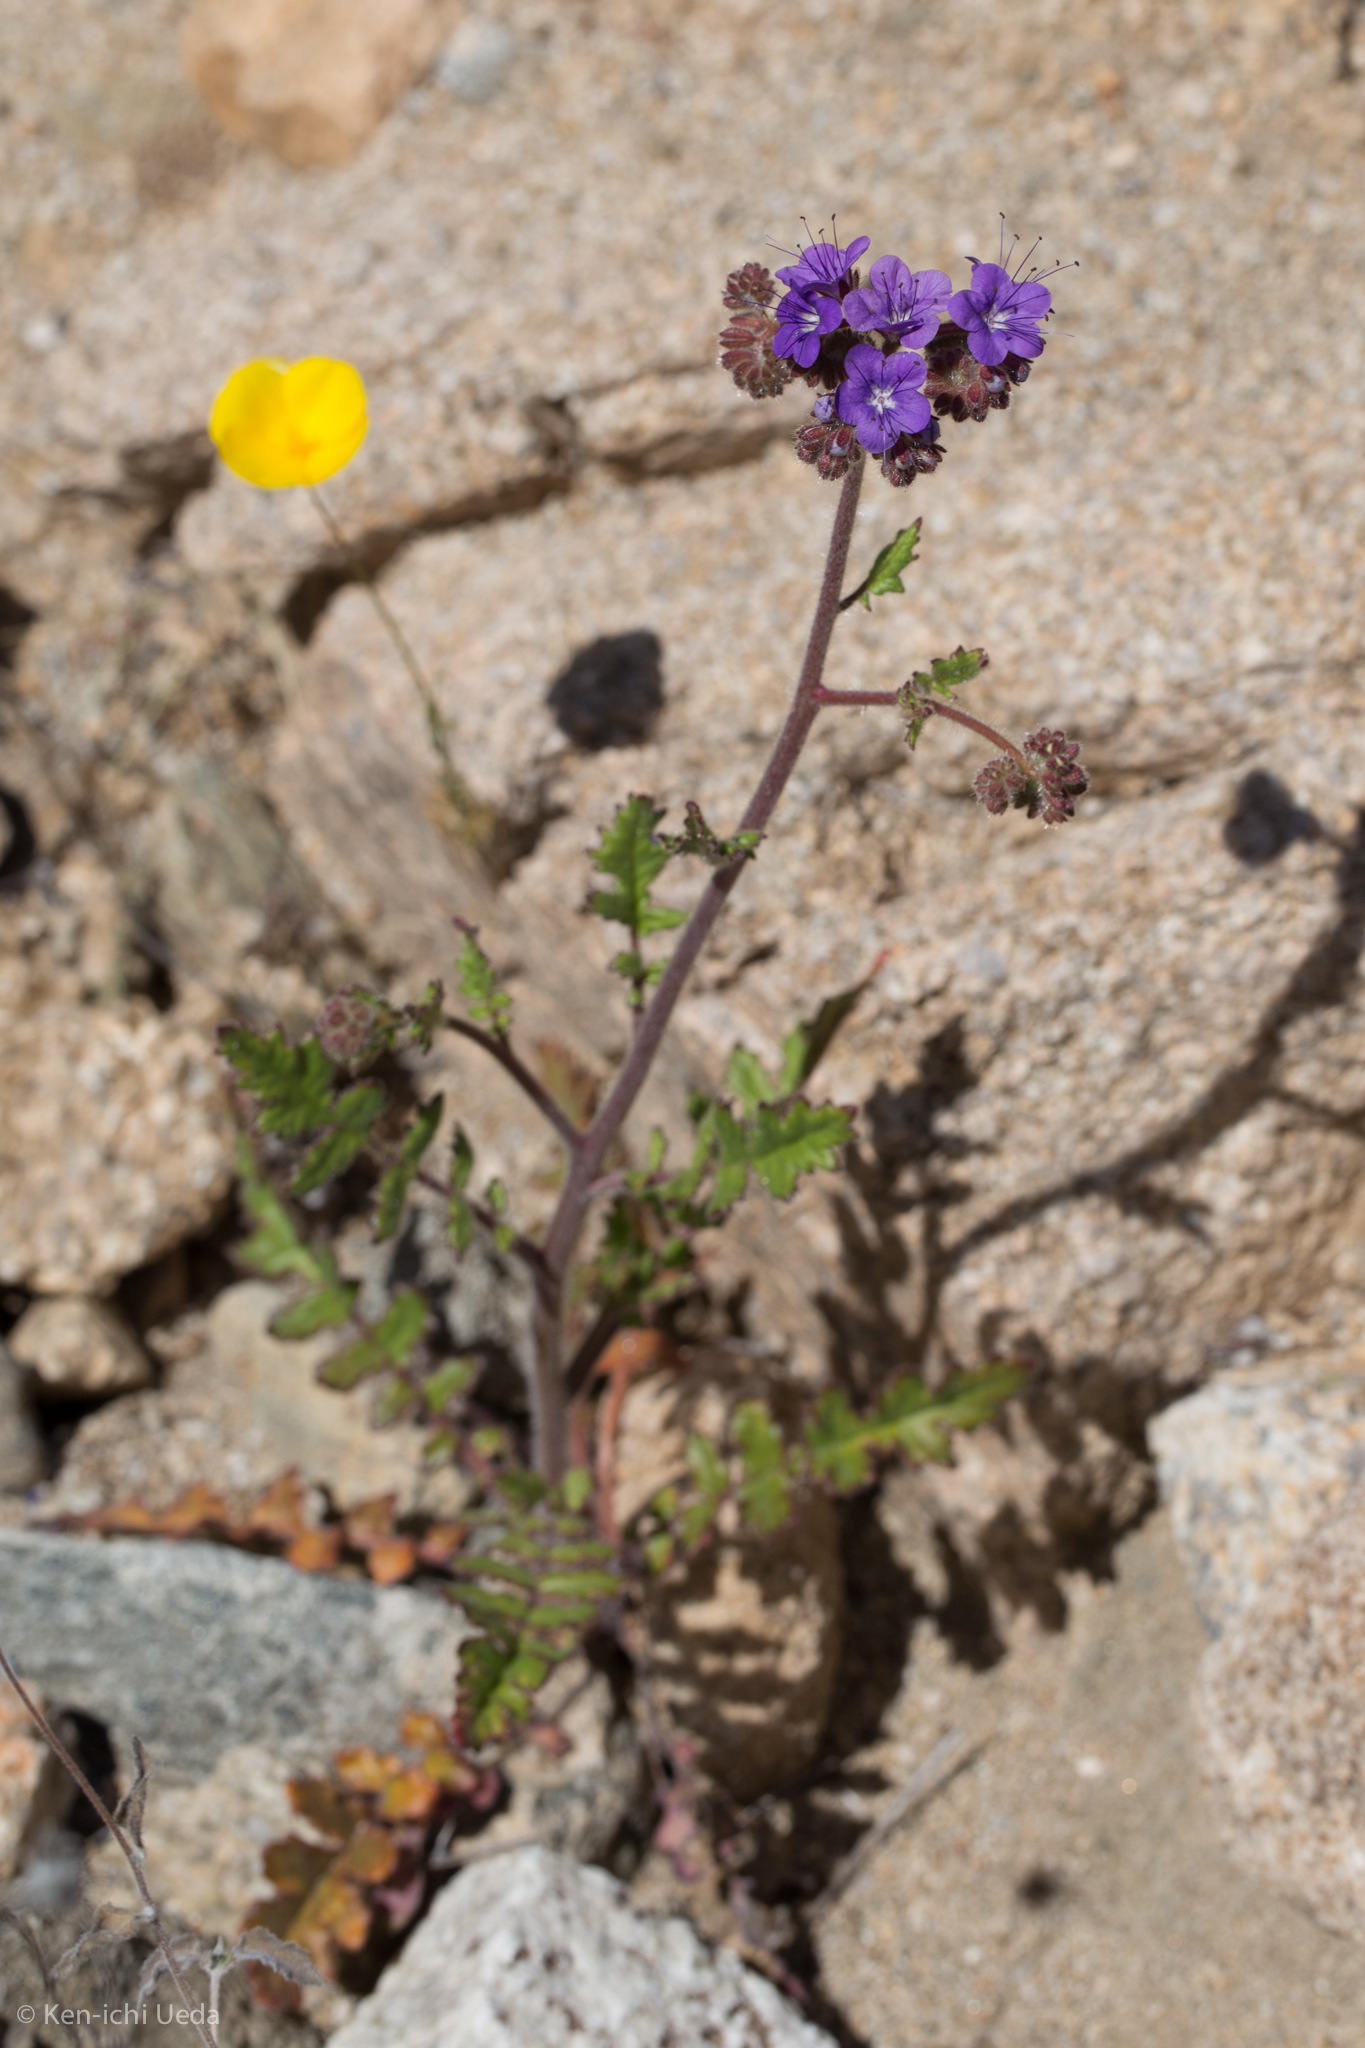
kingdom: Plantae
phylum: Tracheophyta
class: Magnoliopsida
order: Boraginales
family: Hydrophyllaceae
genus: Phacelia
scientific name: Phacelia crenulata
